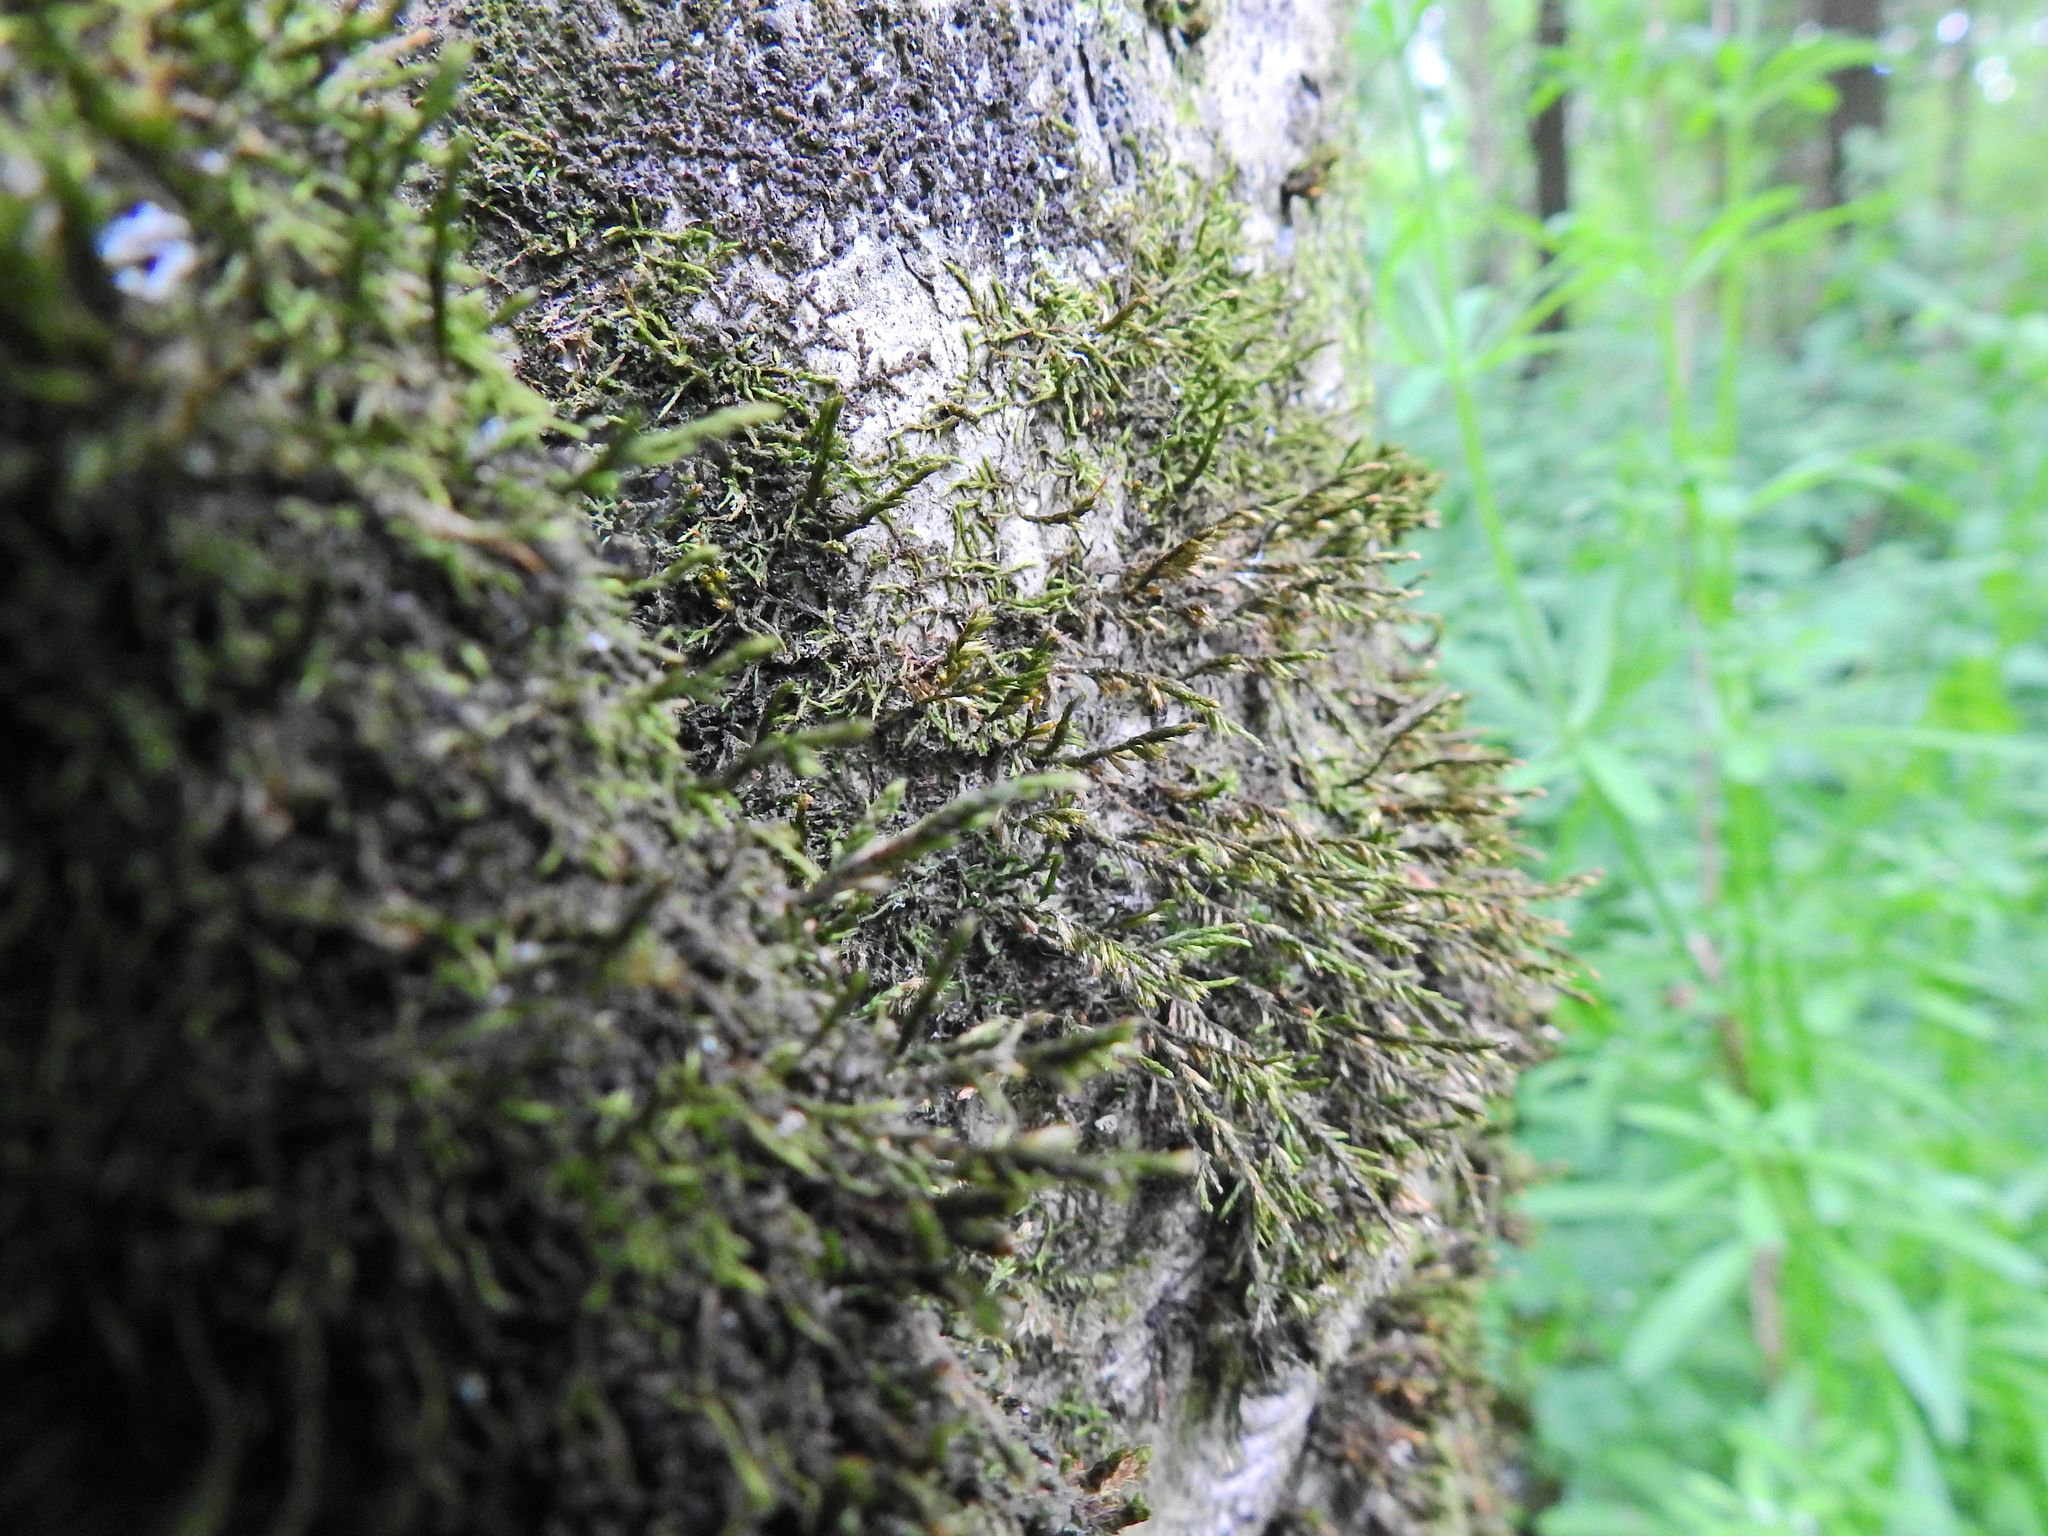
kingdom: Plantae
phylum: Bryophyta
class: Bryopsida
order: Hypnales
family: Cryphaeaceae
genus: Cryphaea
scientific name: Cryphaea heteromalla
